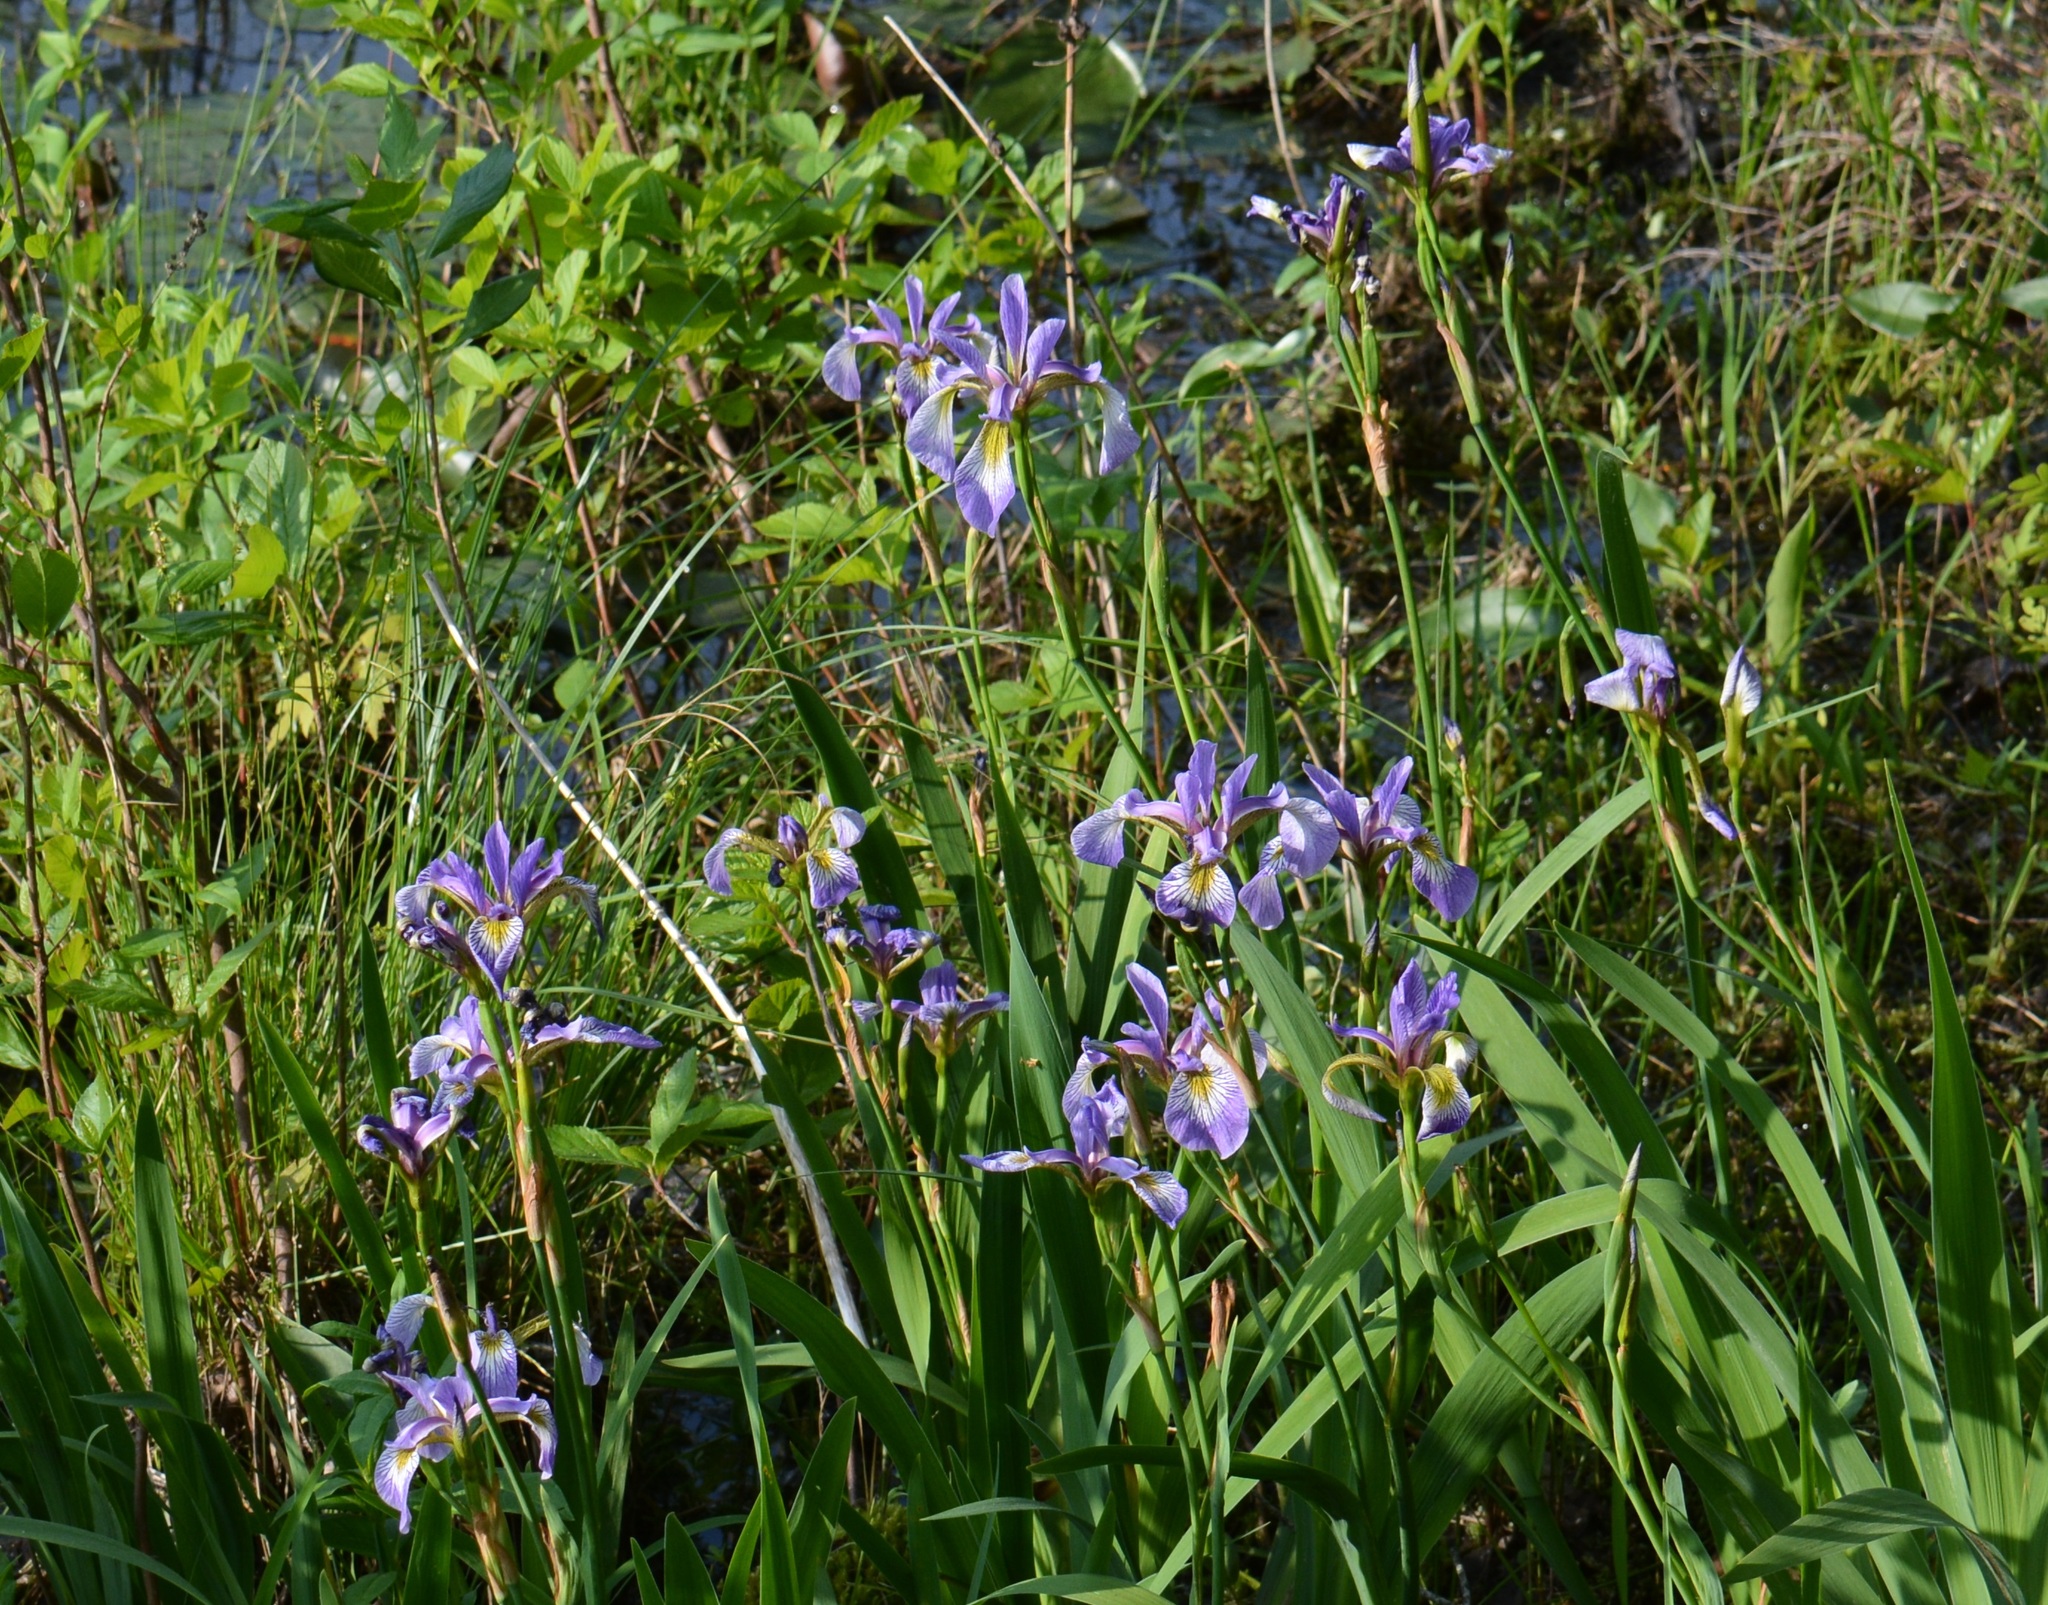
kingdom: Plantae
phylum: Tracheophyta
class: Liliopsida
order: Asparagales
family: Iridaceae
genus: Iris
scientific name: Iris versicolor
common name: Purple iris
